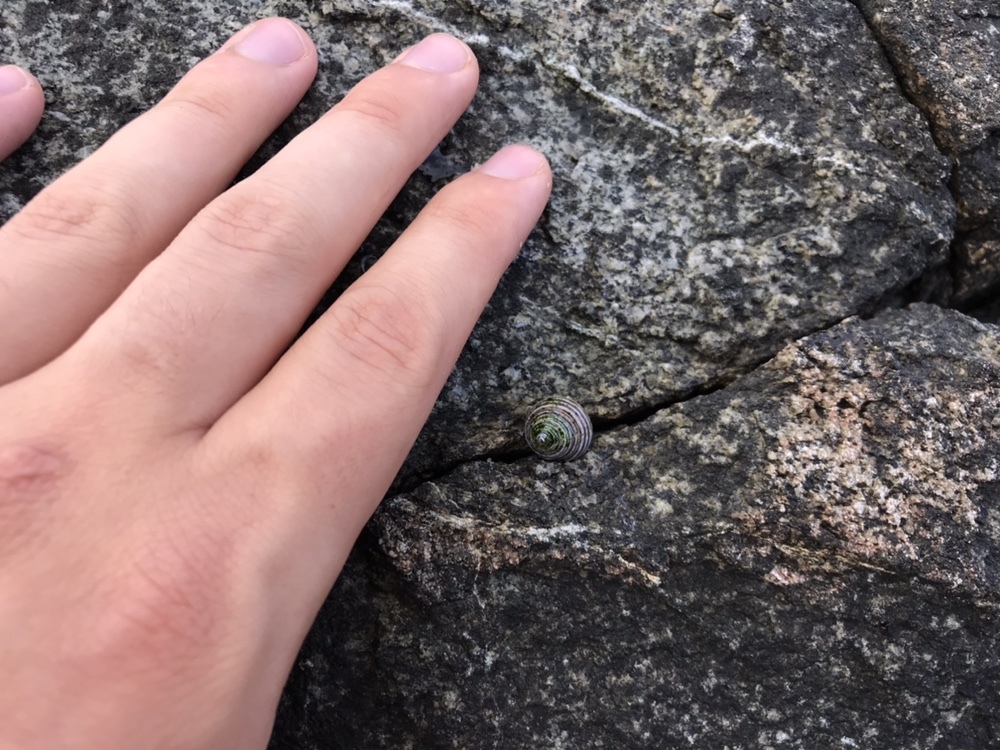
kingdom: Animalia
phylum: Mollusca
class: Gastropoda
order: Trochida
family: Calliostomatidae
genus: Calliostoma
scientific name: Calliostoma ligatum
